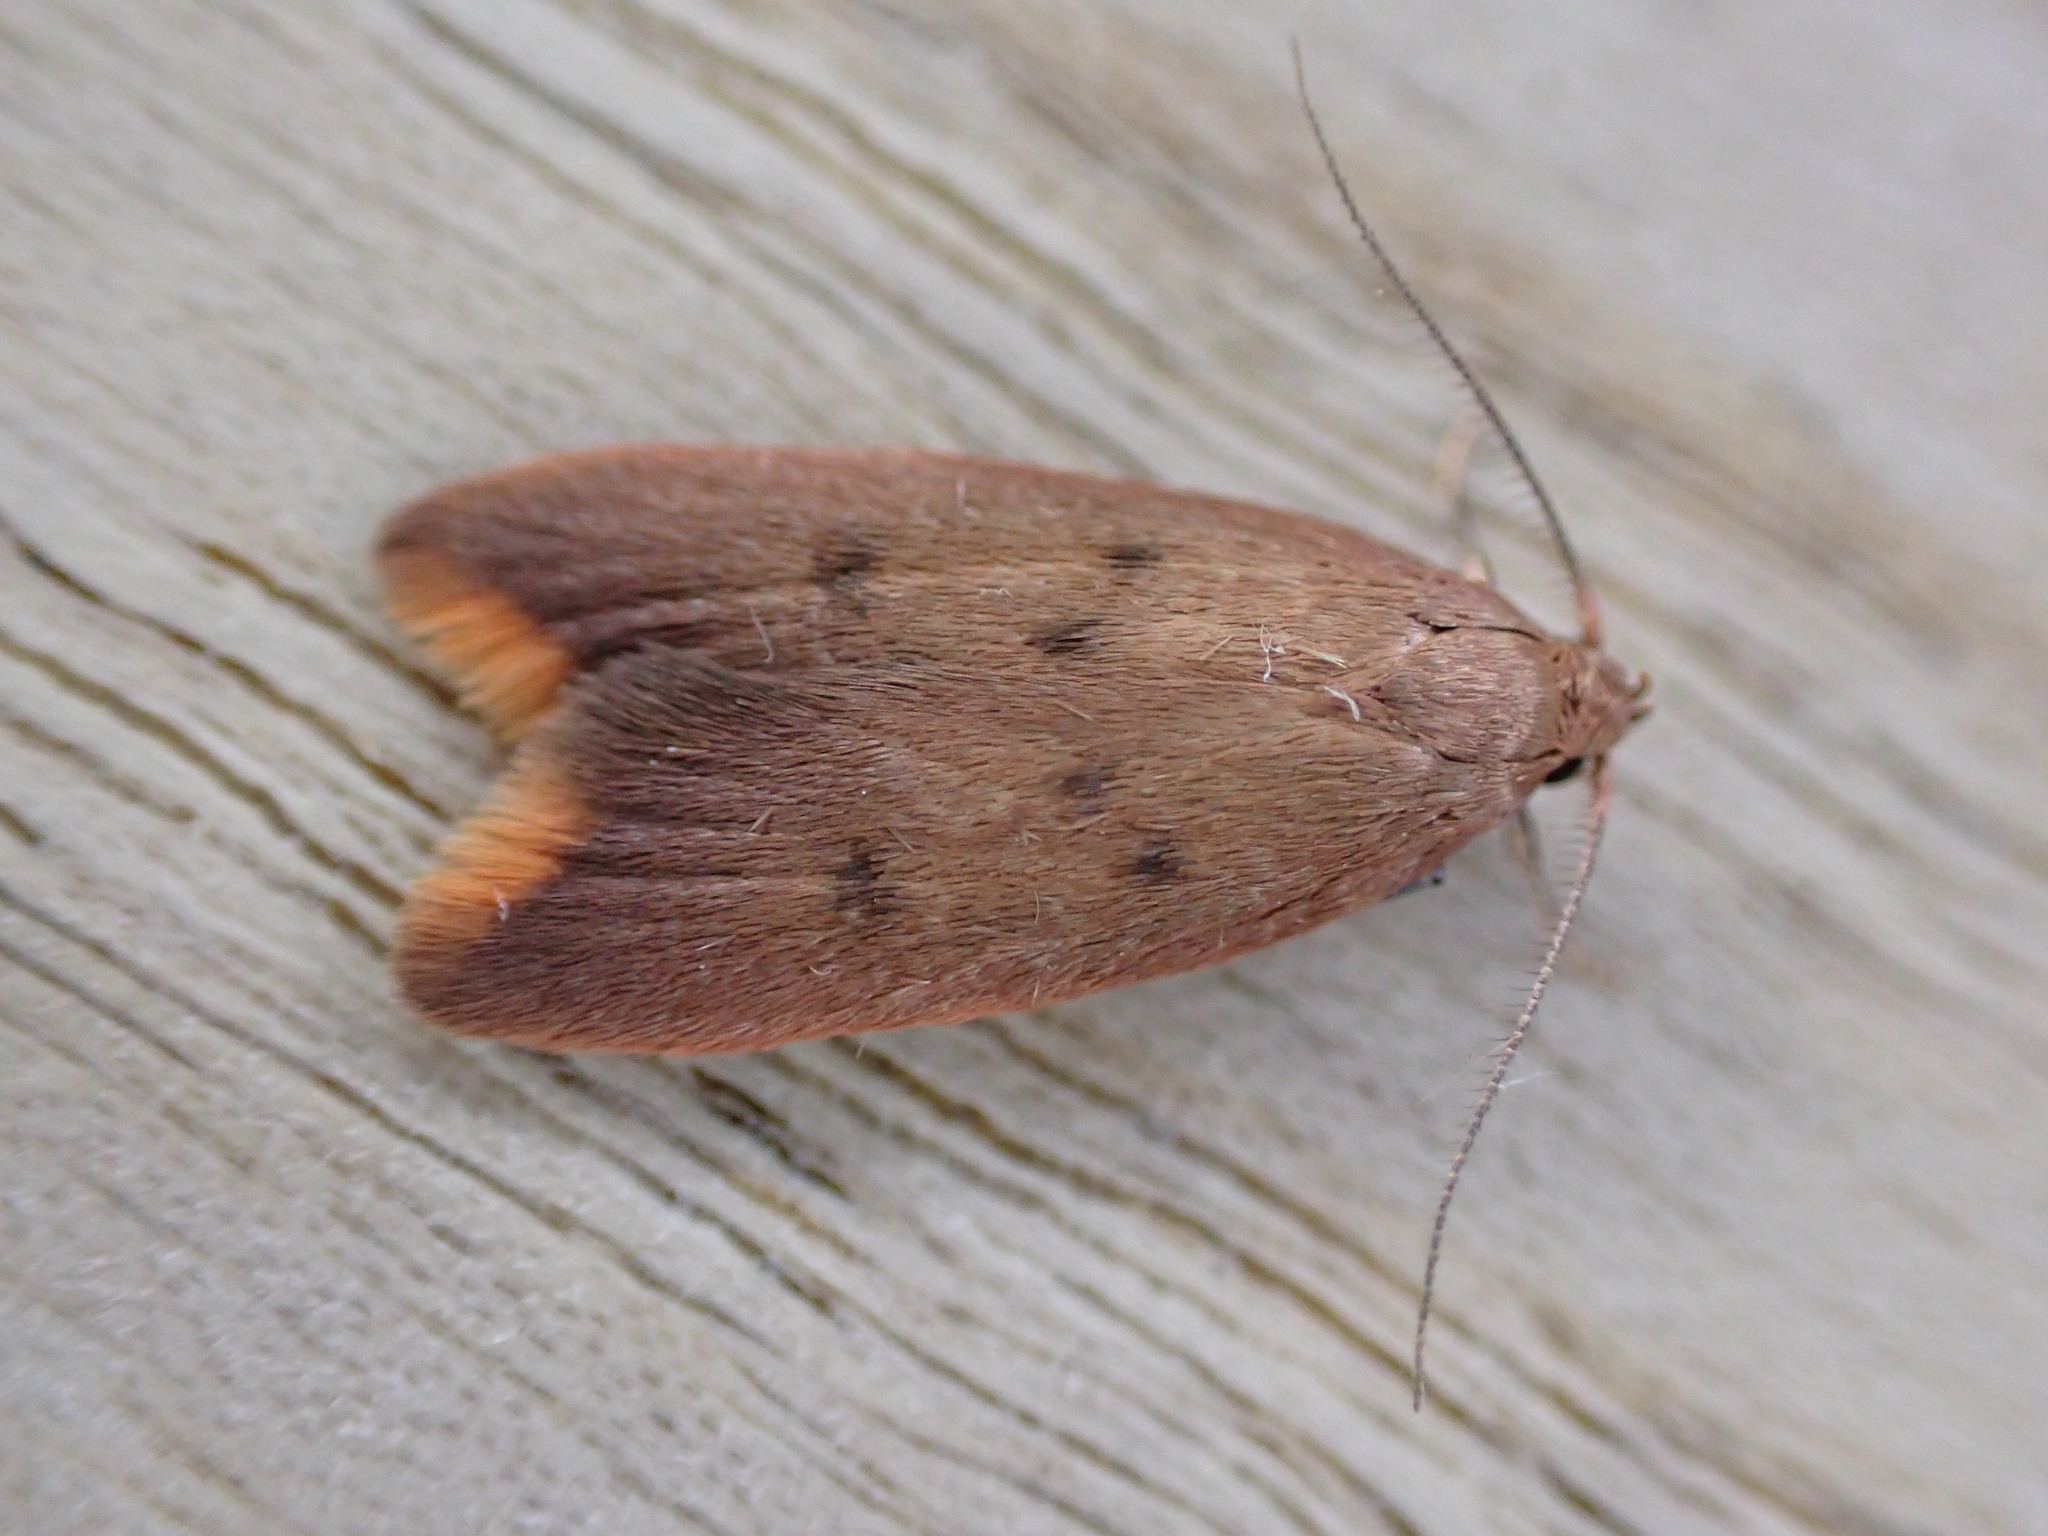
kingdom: Animalia
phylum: Arthropoda
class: Insecta
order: Lepidoptera
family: Oecophoridae
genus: Tachystola
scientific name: Tachystola acroxantha
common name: Ruddy streak
